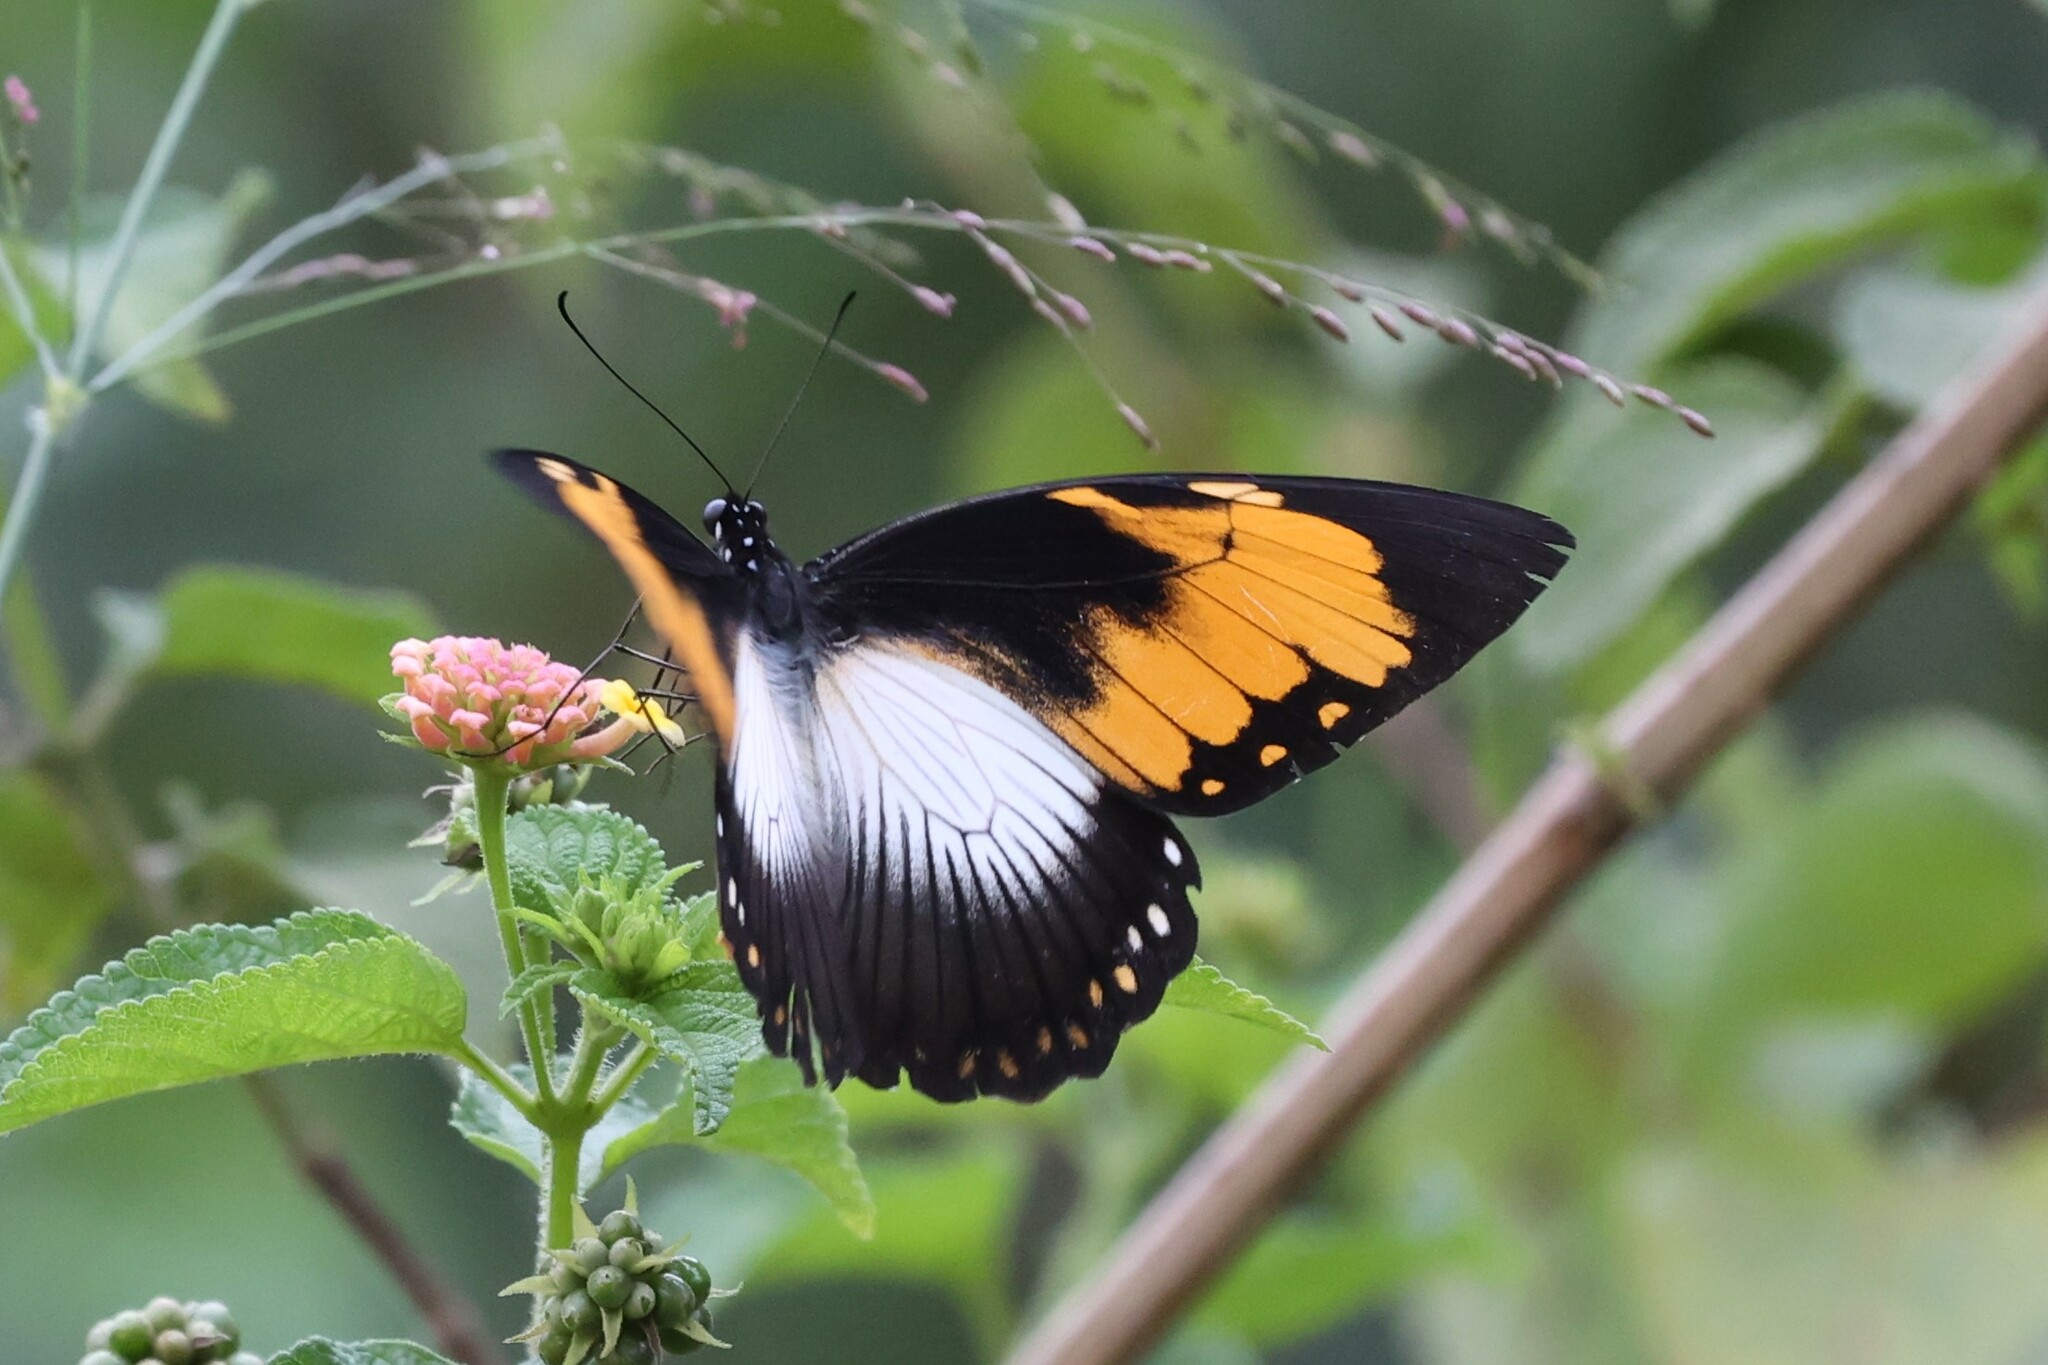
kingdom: Animalia
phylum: Arthropoda
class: Insecta
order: Lepidoptera
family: Papilionidae
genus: Papilio
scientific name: Papilio dardanus
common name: Flying handkerchief
